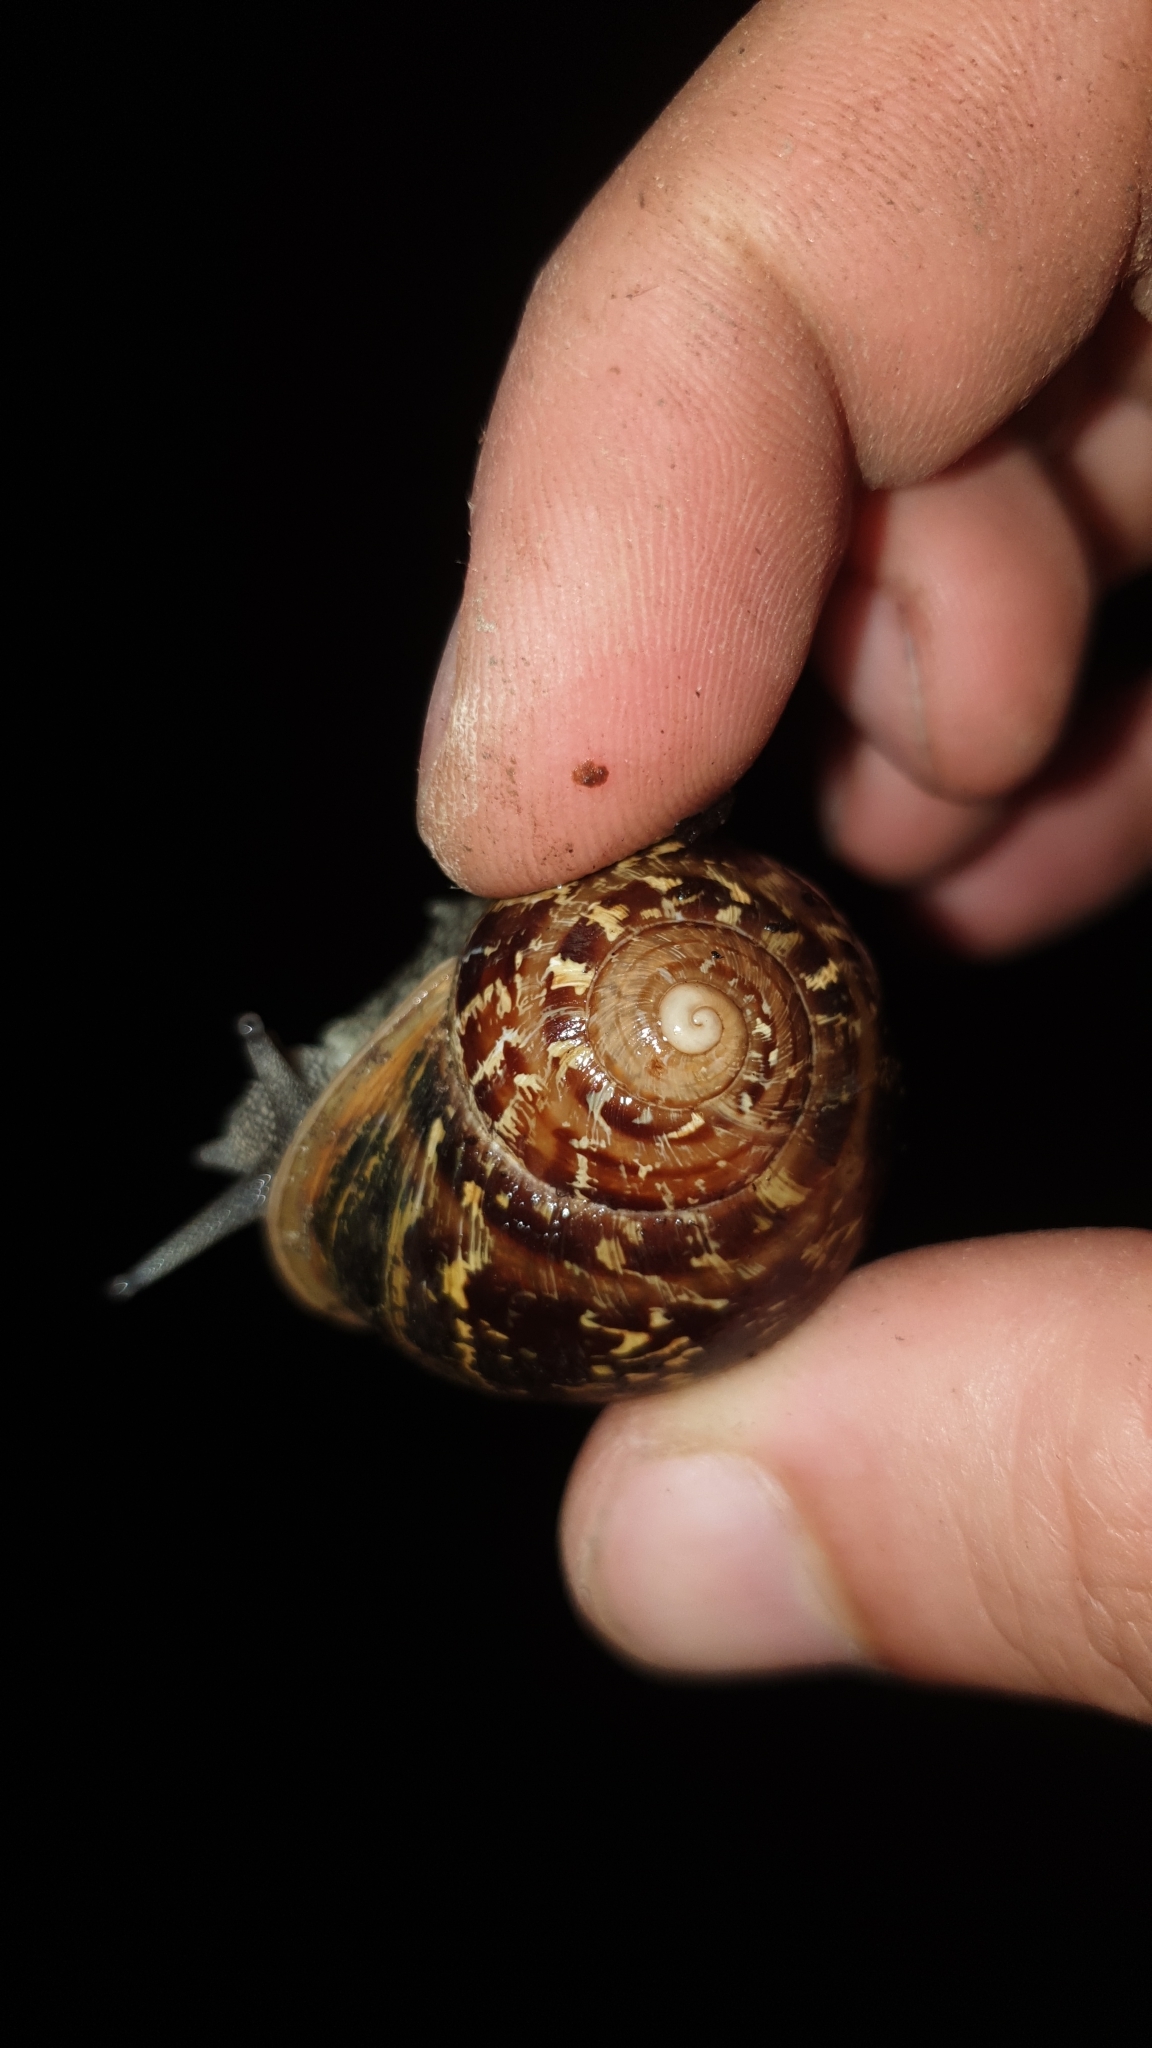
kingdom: Animalia
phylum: Mollusca
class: Gastropoda
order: Stylommatophora
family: Helicidae
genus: Cornu
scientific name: Cornu aspersum
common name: Brown garden snail
